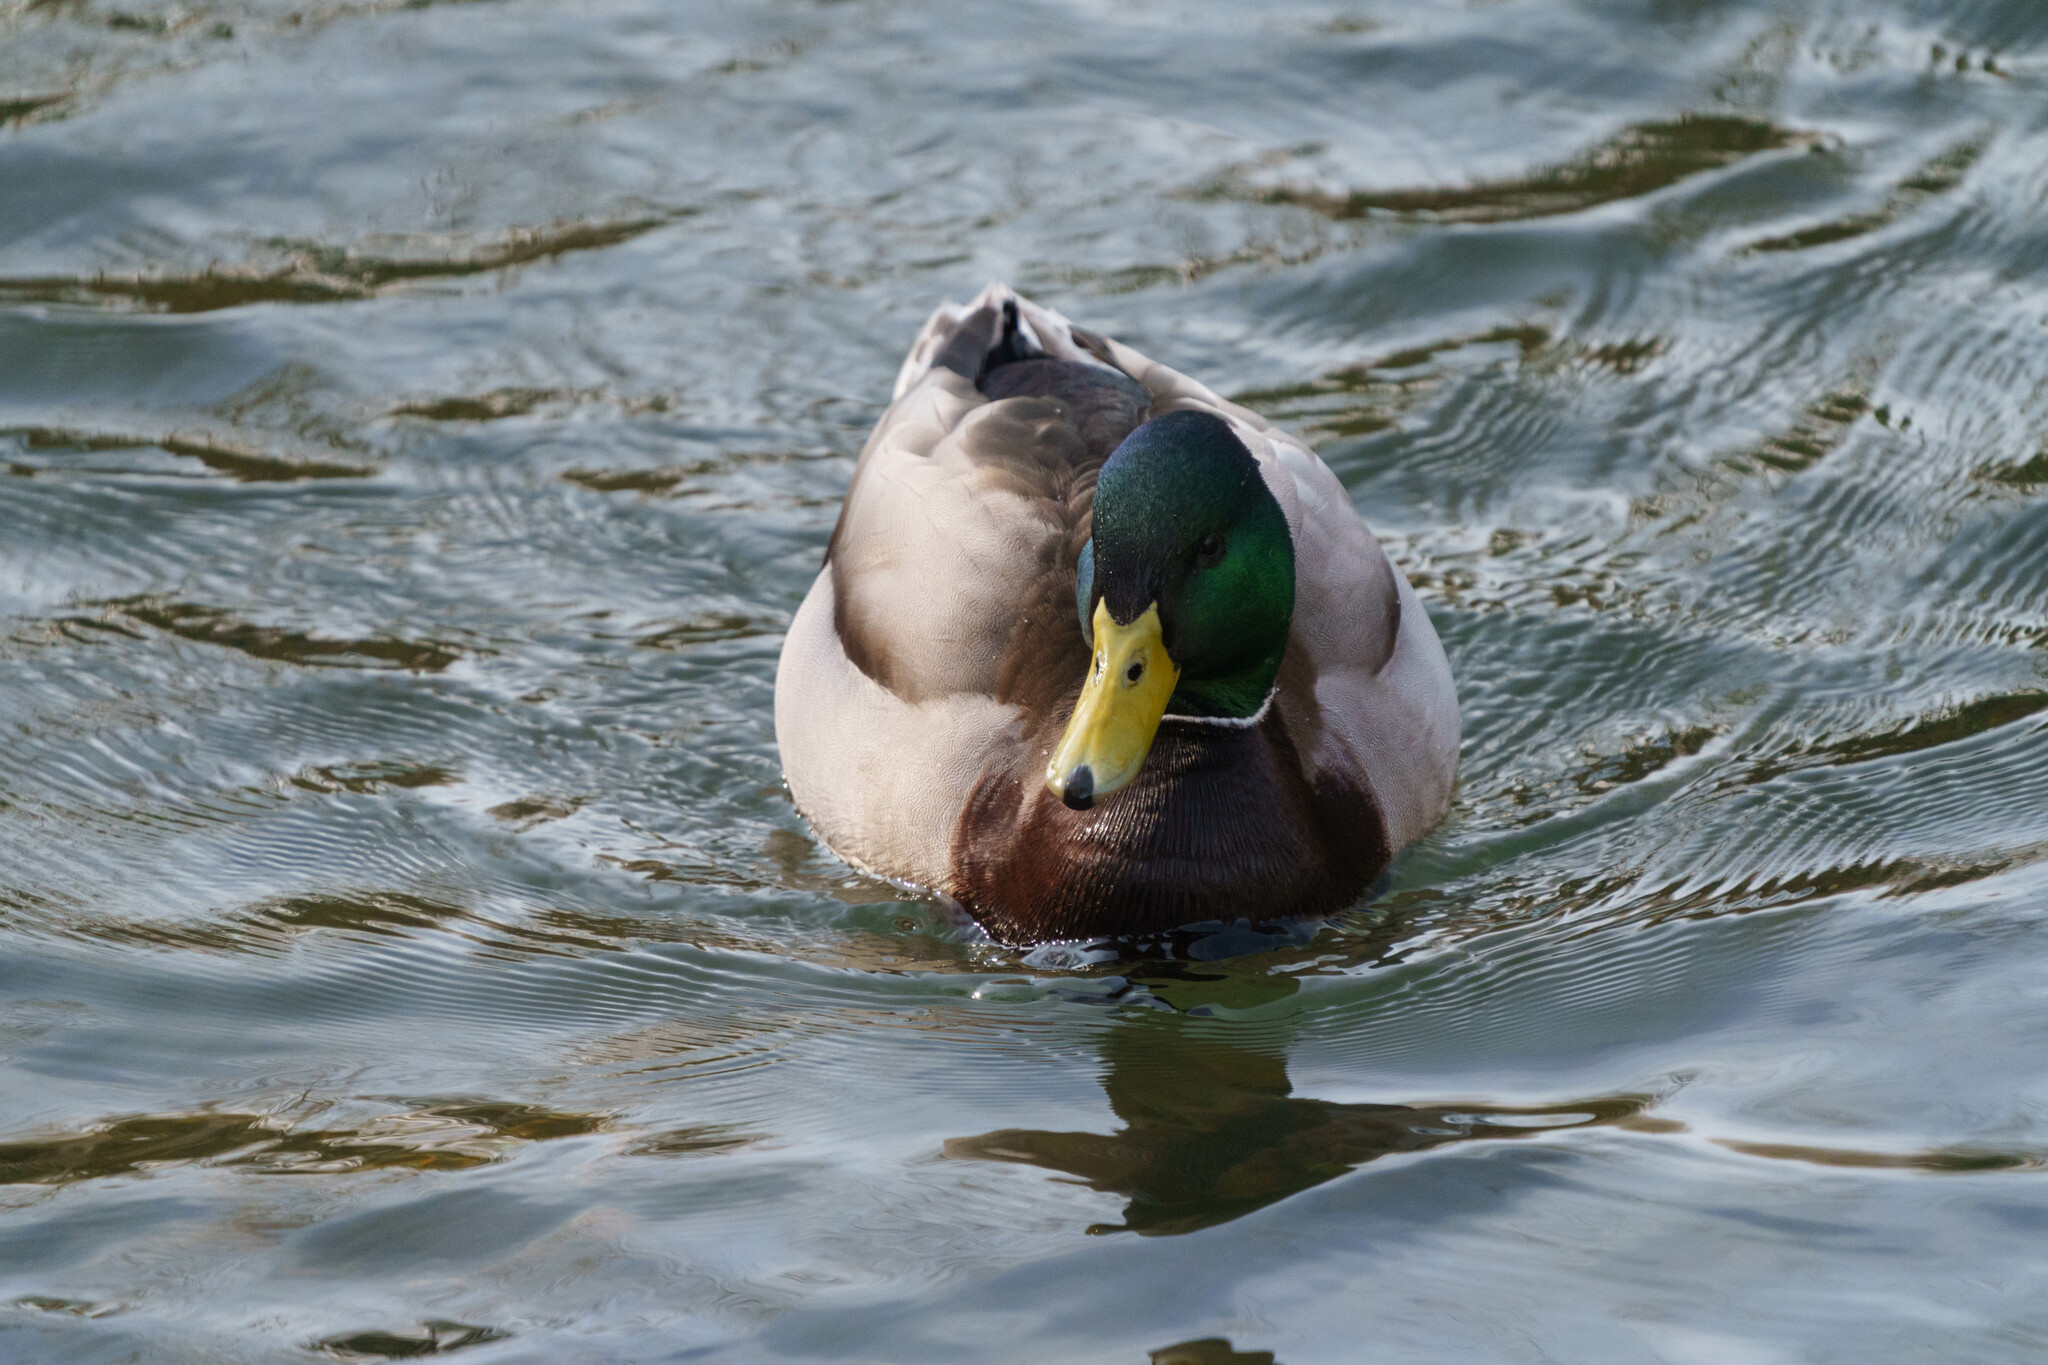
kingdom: Animalia
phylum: Chordata
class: Aves
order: Anseriformes
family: Anatidae
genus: Anas
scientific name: Anas platyrhynchos
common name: Mallard
